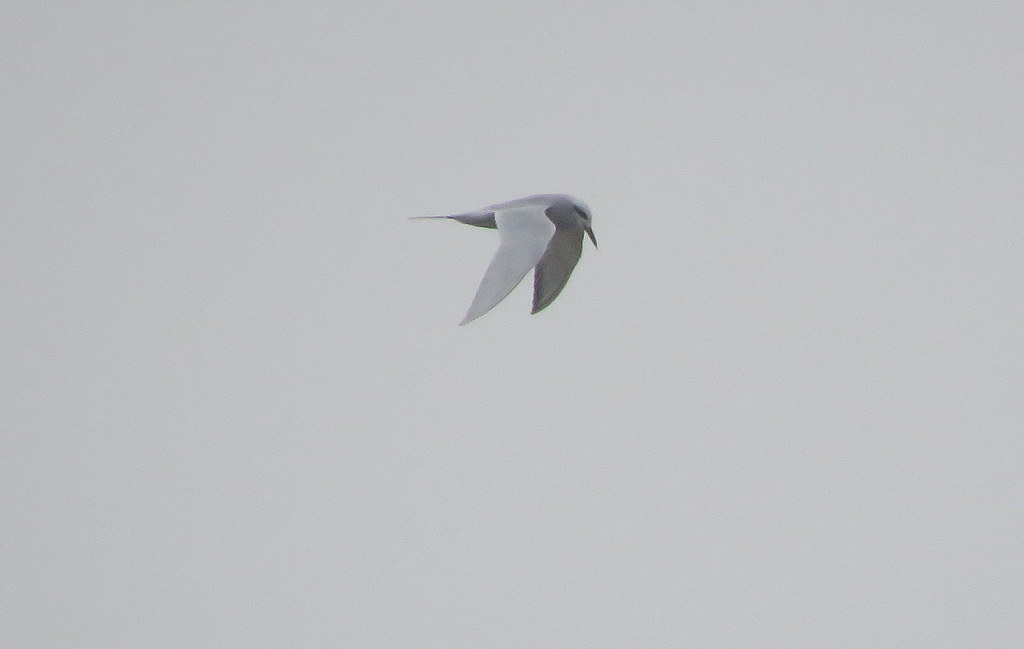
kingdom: Animalia
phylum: Chordata
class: Aves
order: Charadriiformes
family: Laridae
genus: Sterna
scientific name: Sterna trudeaui
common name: Snowy-crowned tern
